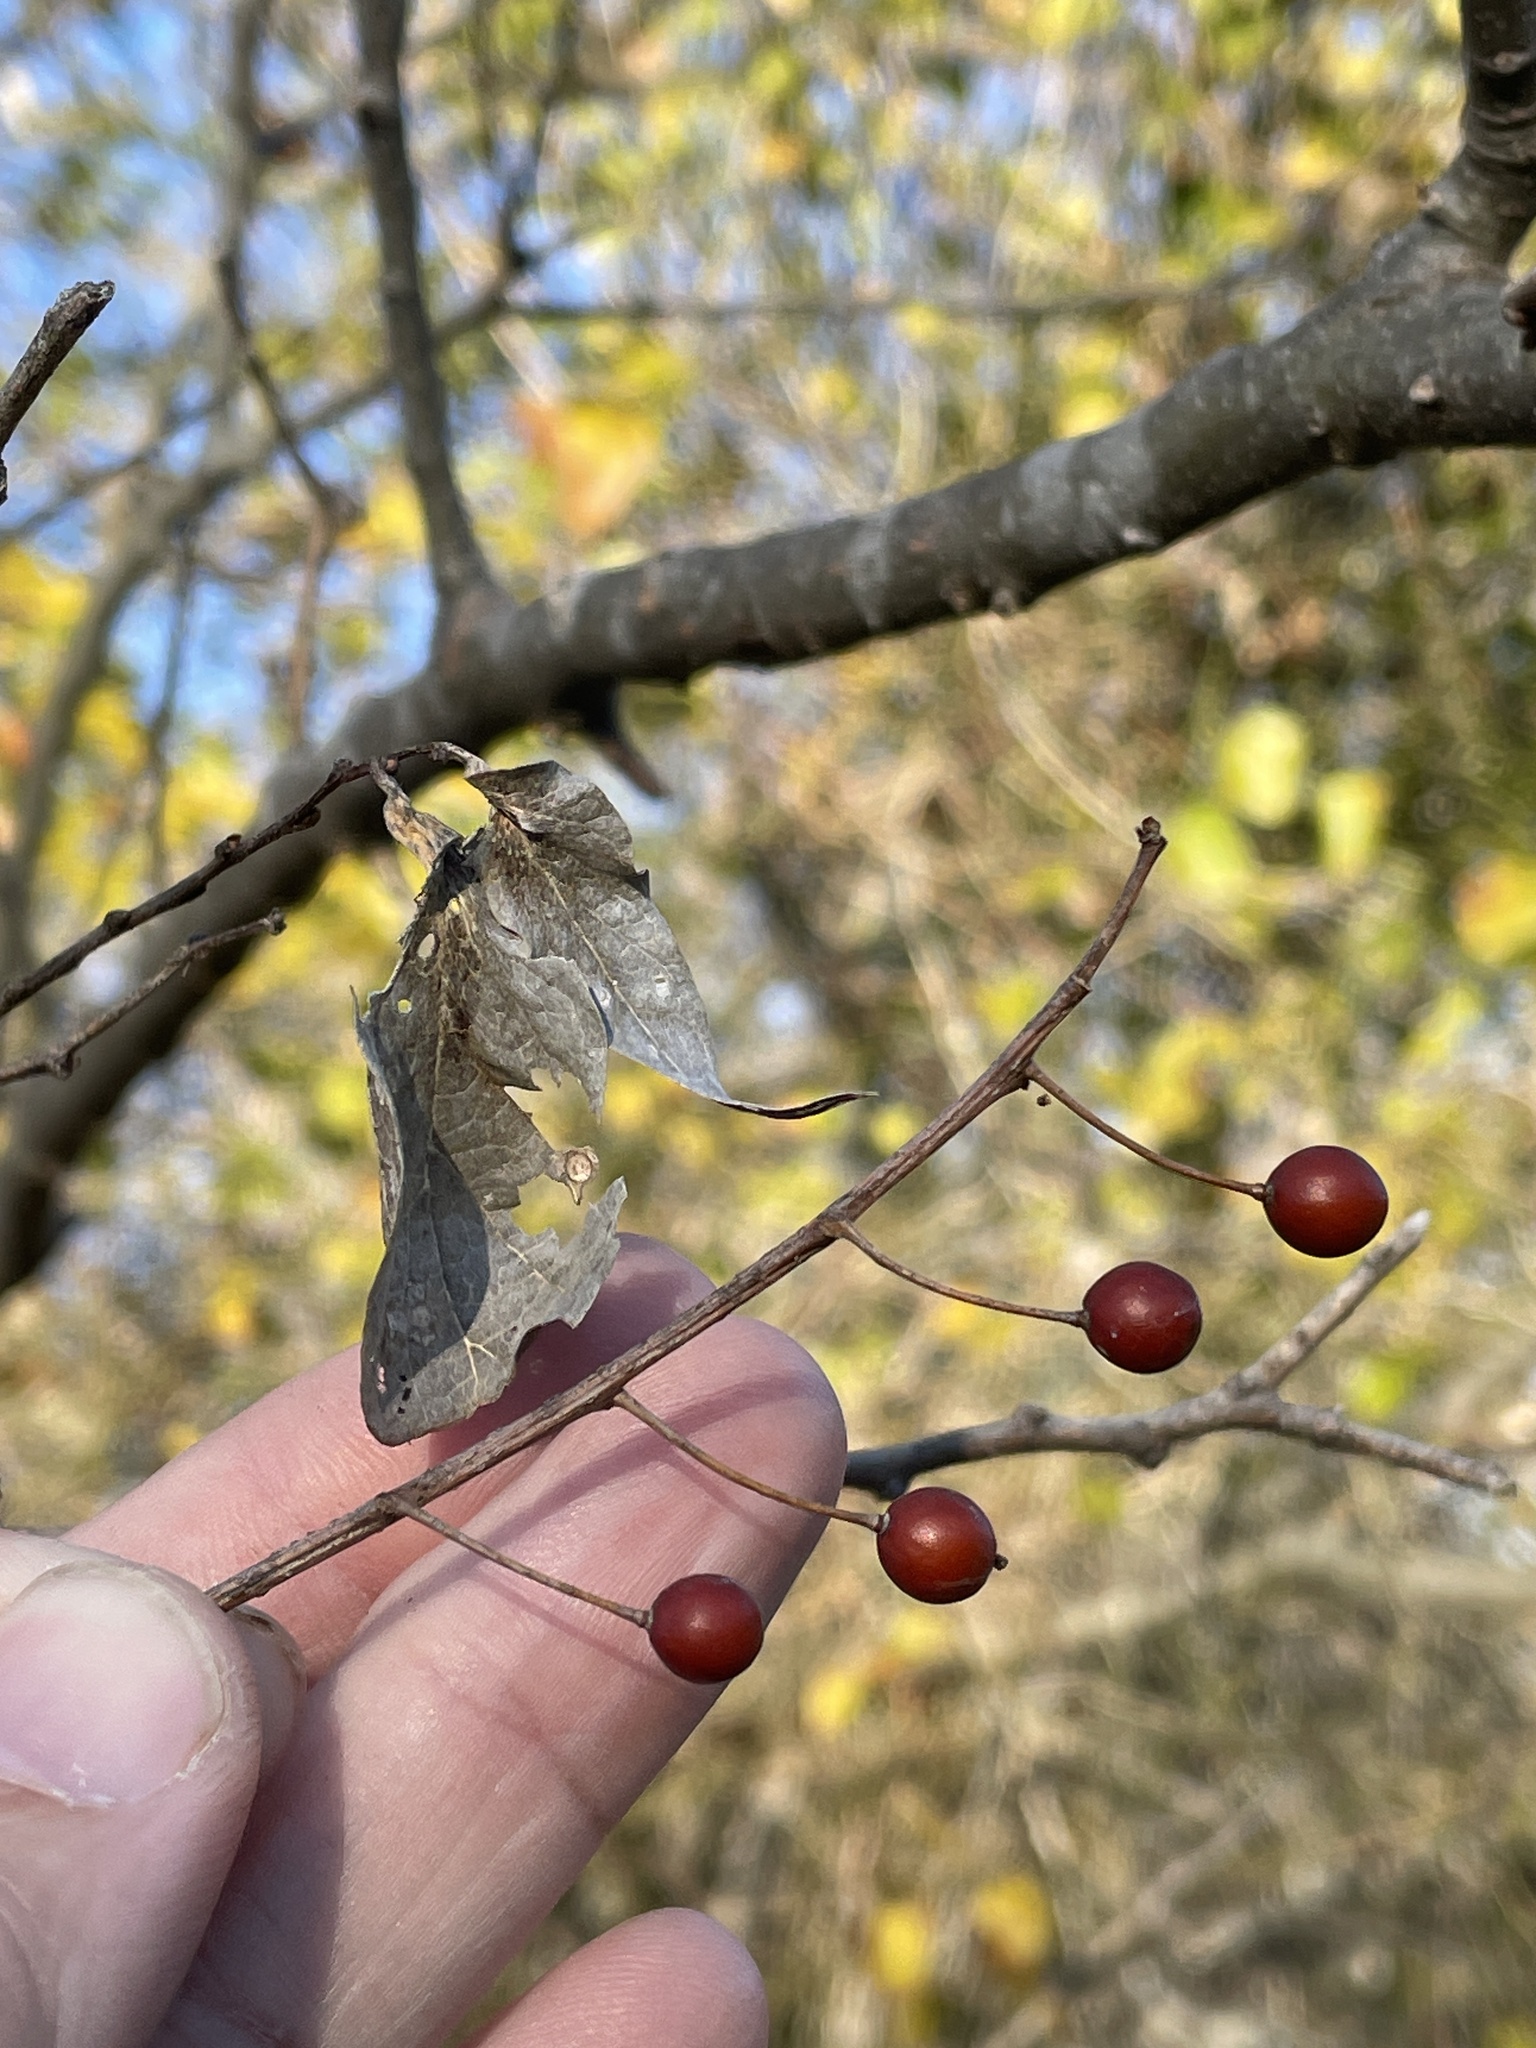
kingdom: Plantae
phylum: Tracheophyta
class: Magnoliopsida
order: Rosales
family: Cannabaceae
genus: Celtis
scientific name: Celtis laevigata
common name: Sugarberry
